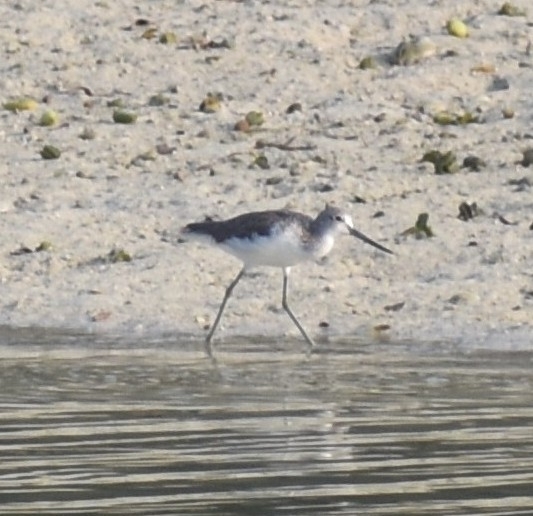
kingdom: Animalia
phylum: Chordata
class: Aves
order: Charadriiformes
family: Scolopacidae
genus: Tringa
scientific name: Tringa nebularia
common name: Common greenshank
